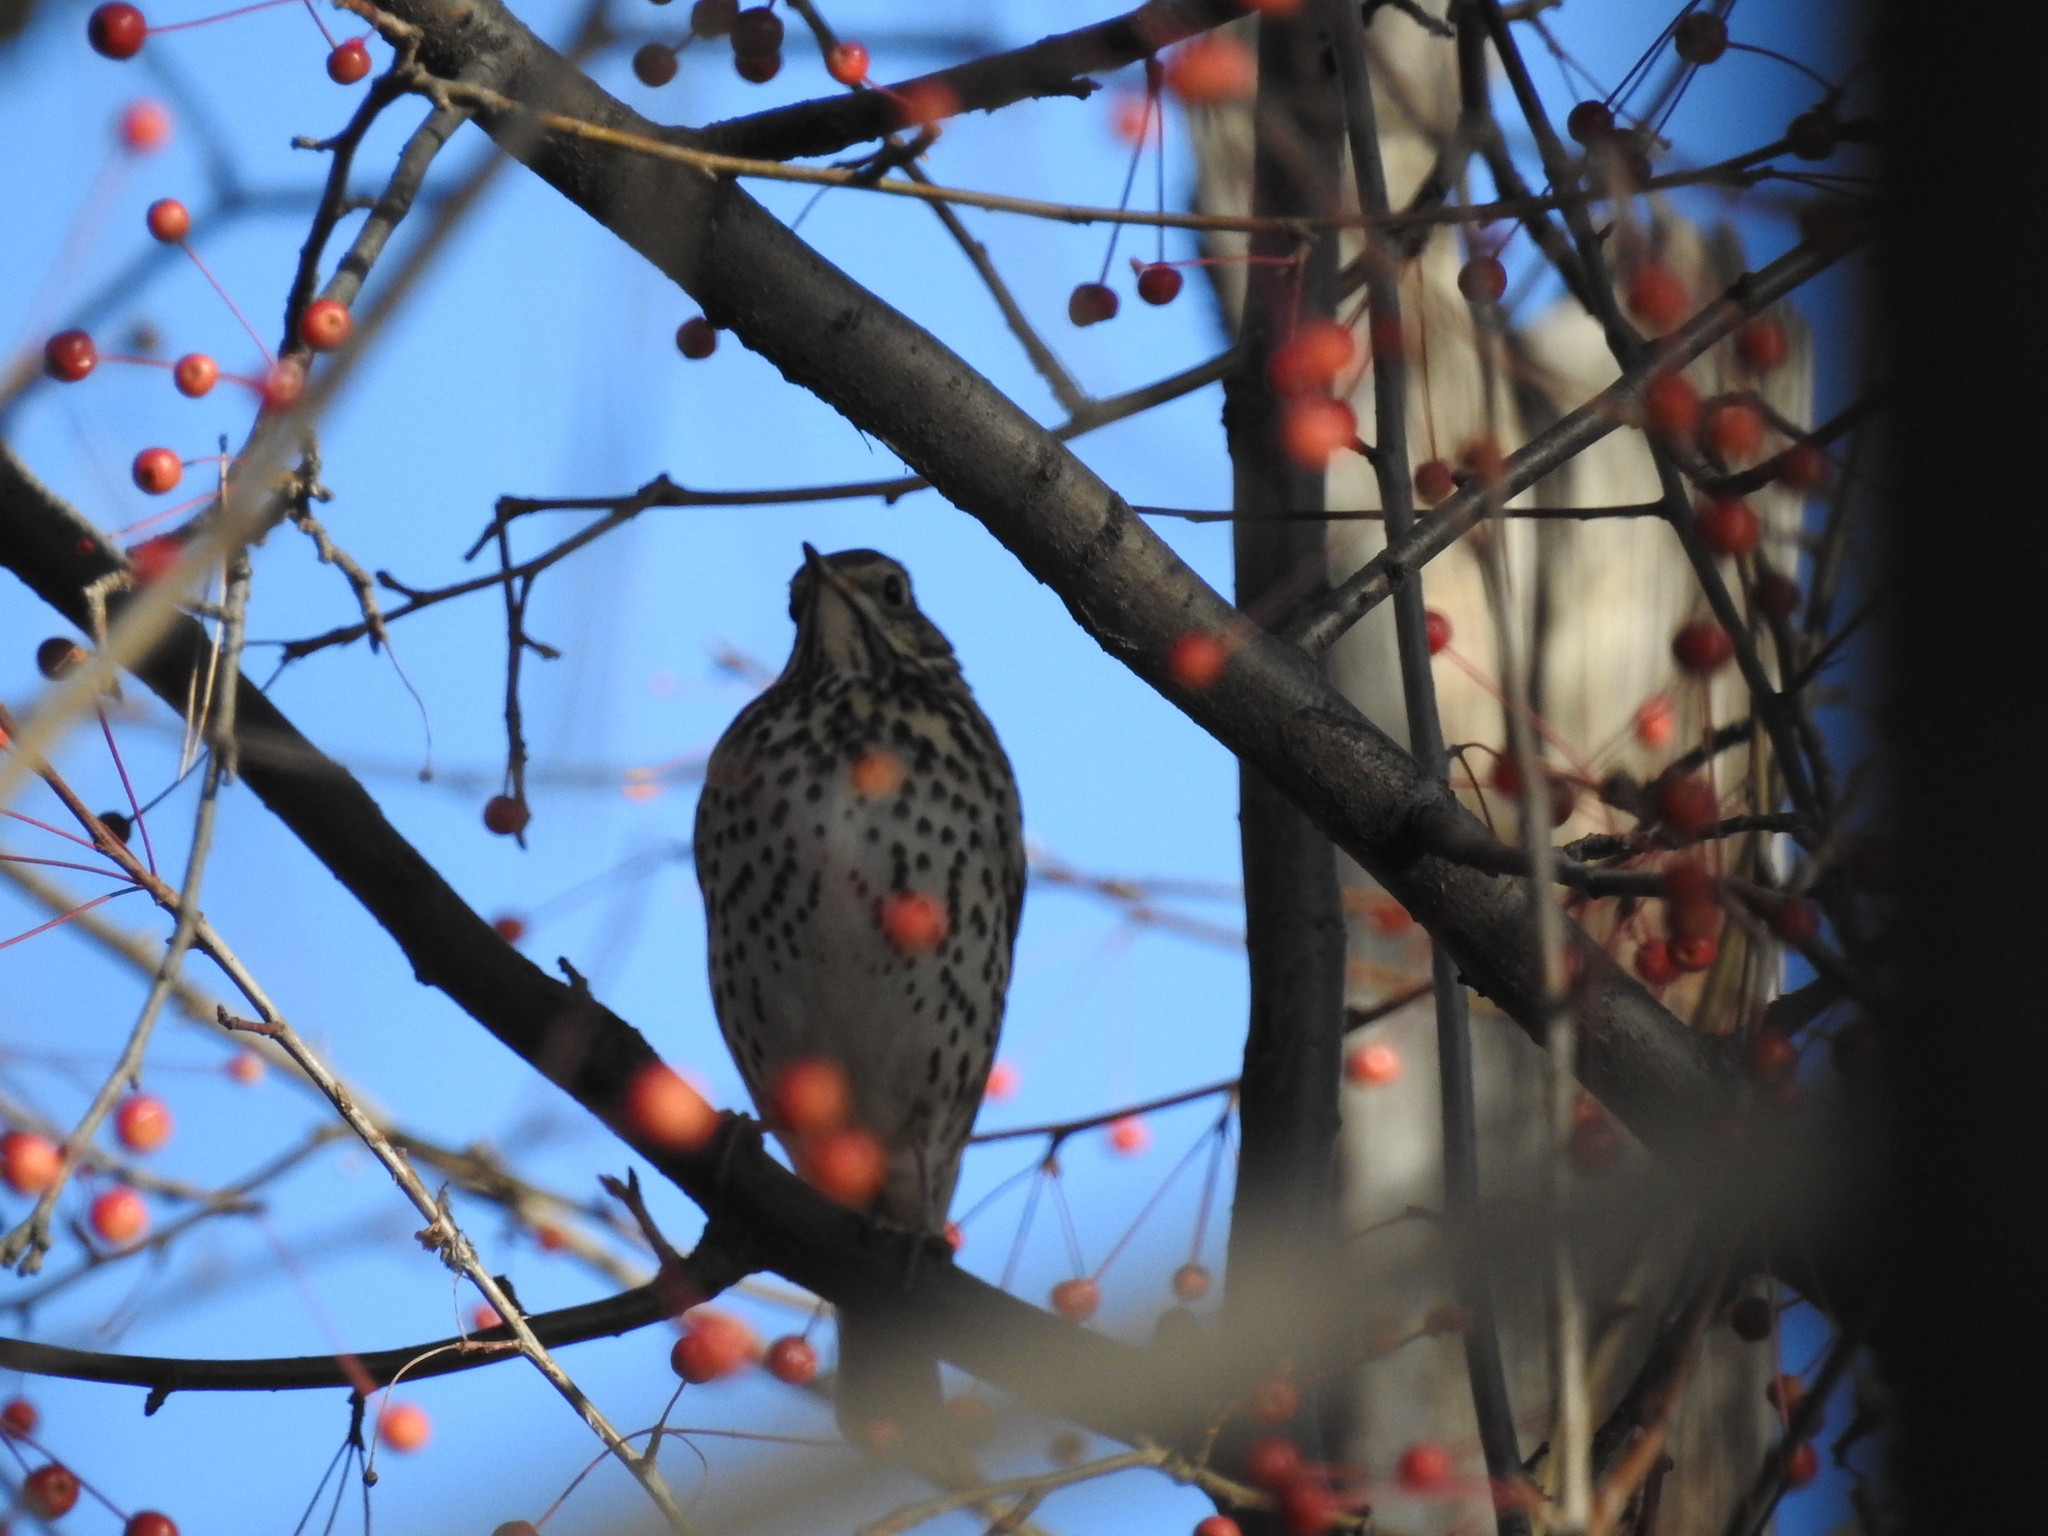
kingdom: Animalia
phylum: Chordata
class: Aves
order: Passeriformes
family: Turdidae
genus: Turdus
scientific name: Turdus philomelos
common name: Song thrush
